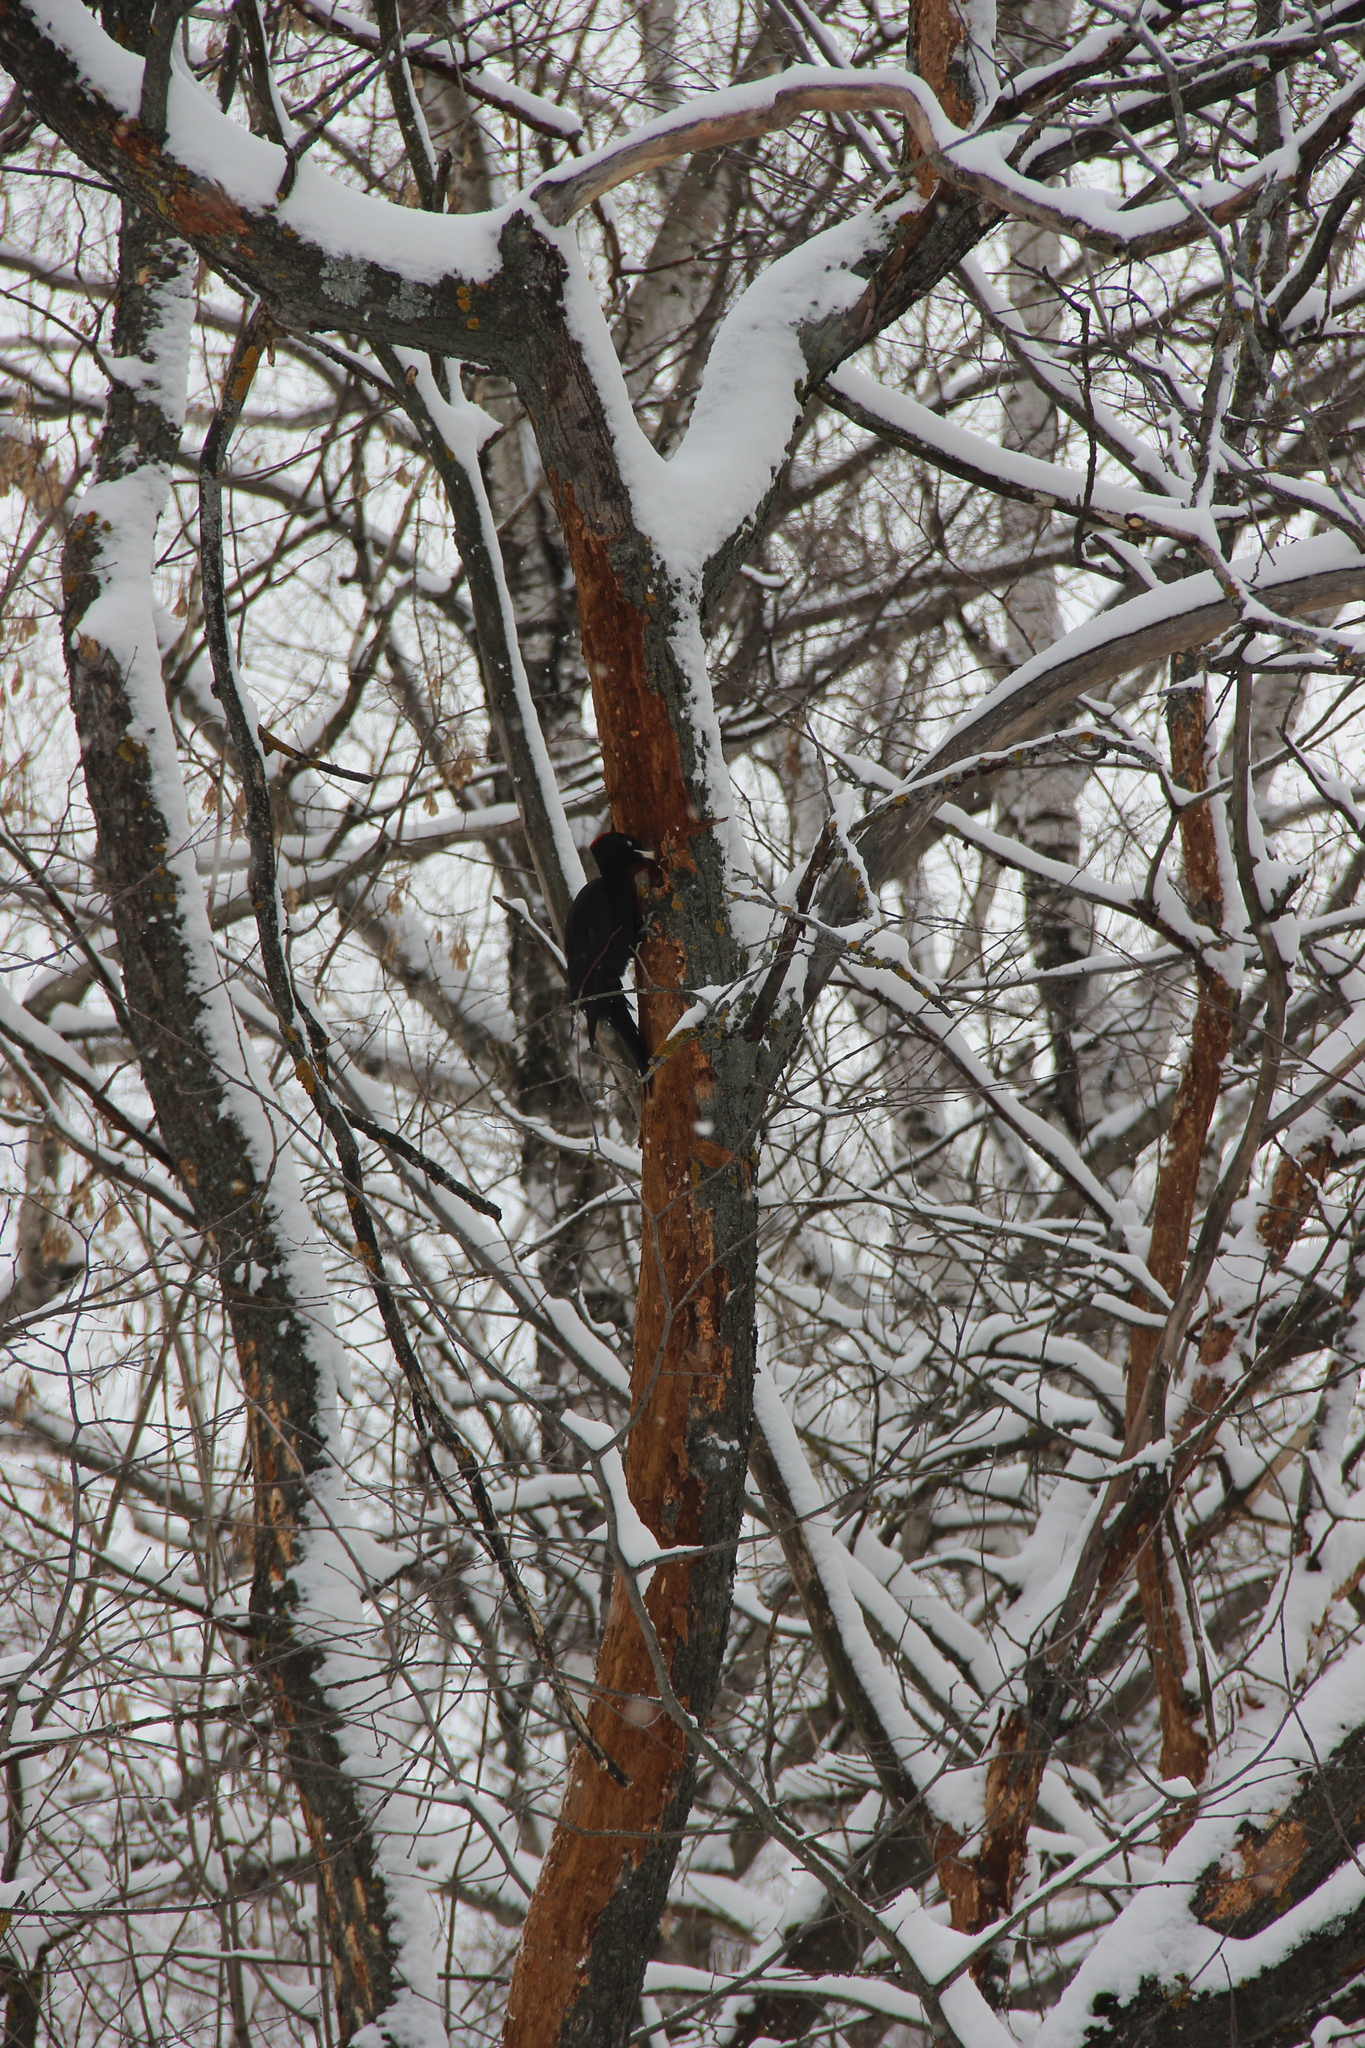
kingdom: Animalia
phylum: Chordata
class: Aves
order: Piciformes
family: Picidae
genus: Dryocopus
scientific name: Dryocopus martius
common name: Black woodpecker
